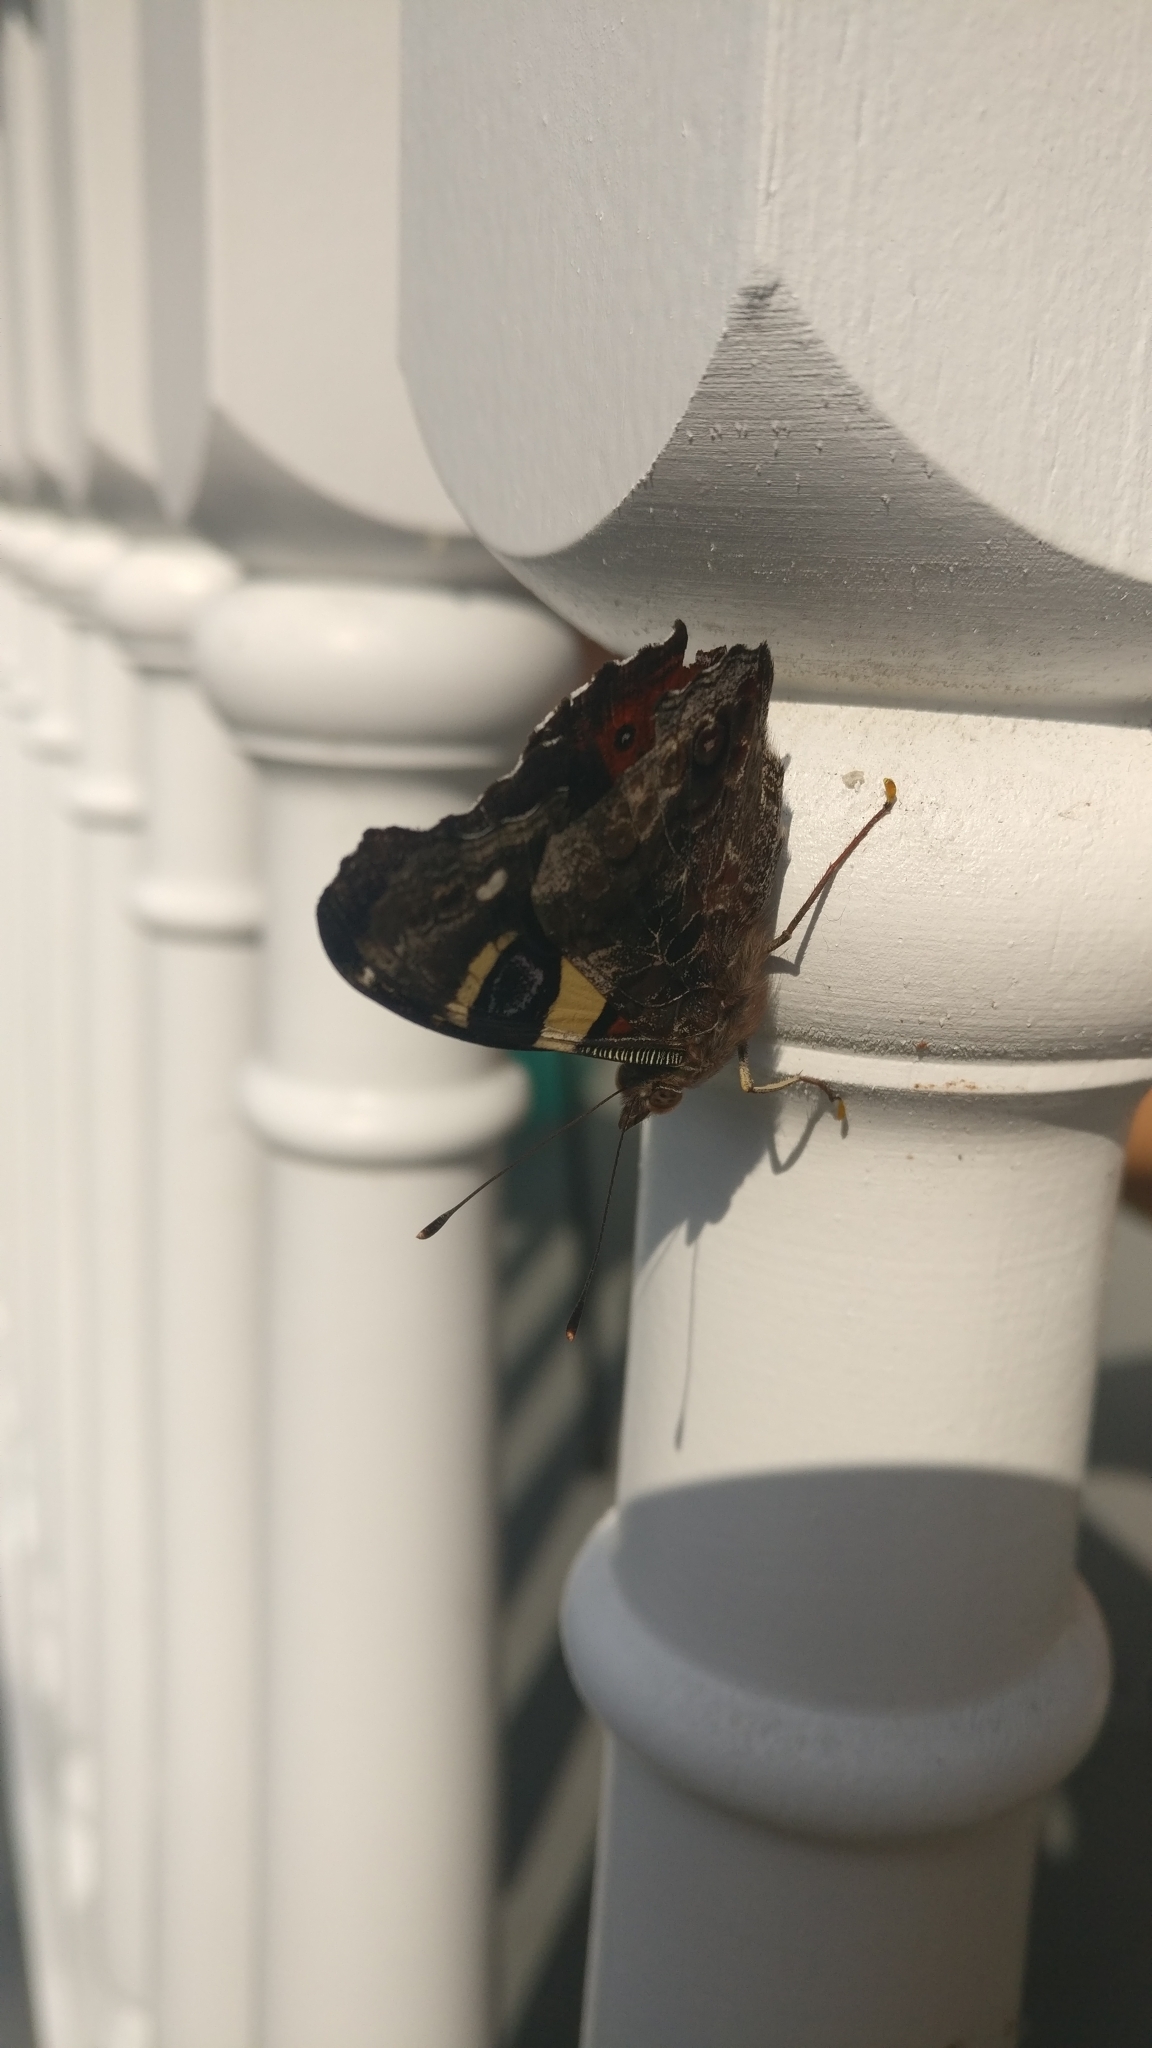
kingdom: Animalia
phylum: Arthropoda
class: Insecta
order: Lepidoptera
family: Nymphalidae
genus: Vanessa
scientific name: Vanessa itea
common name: Yellow admiral
